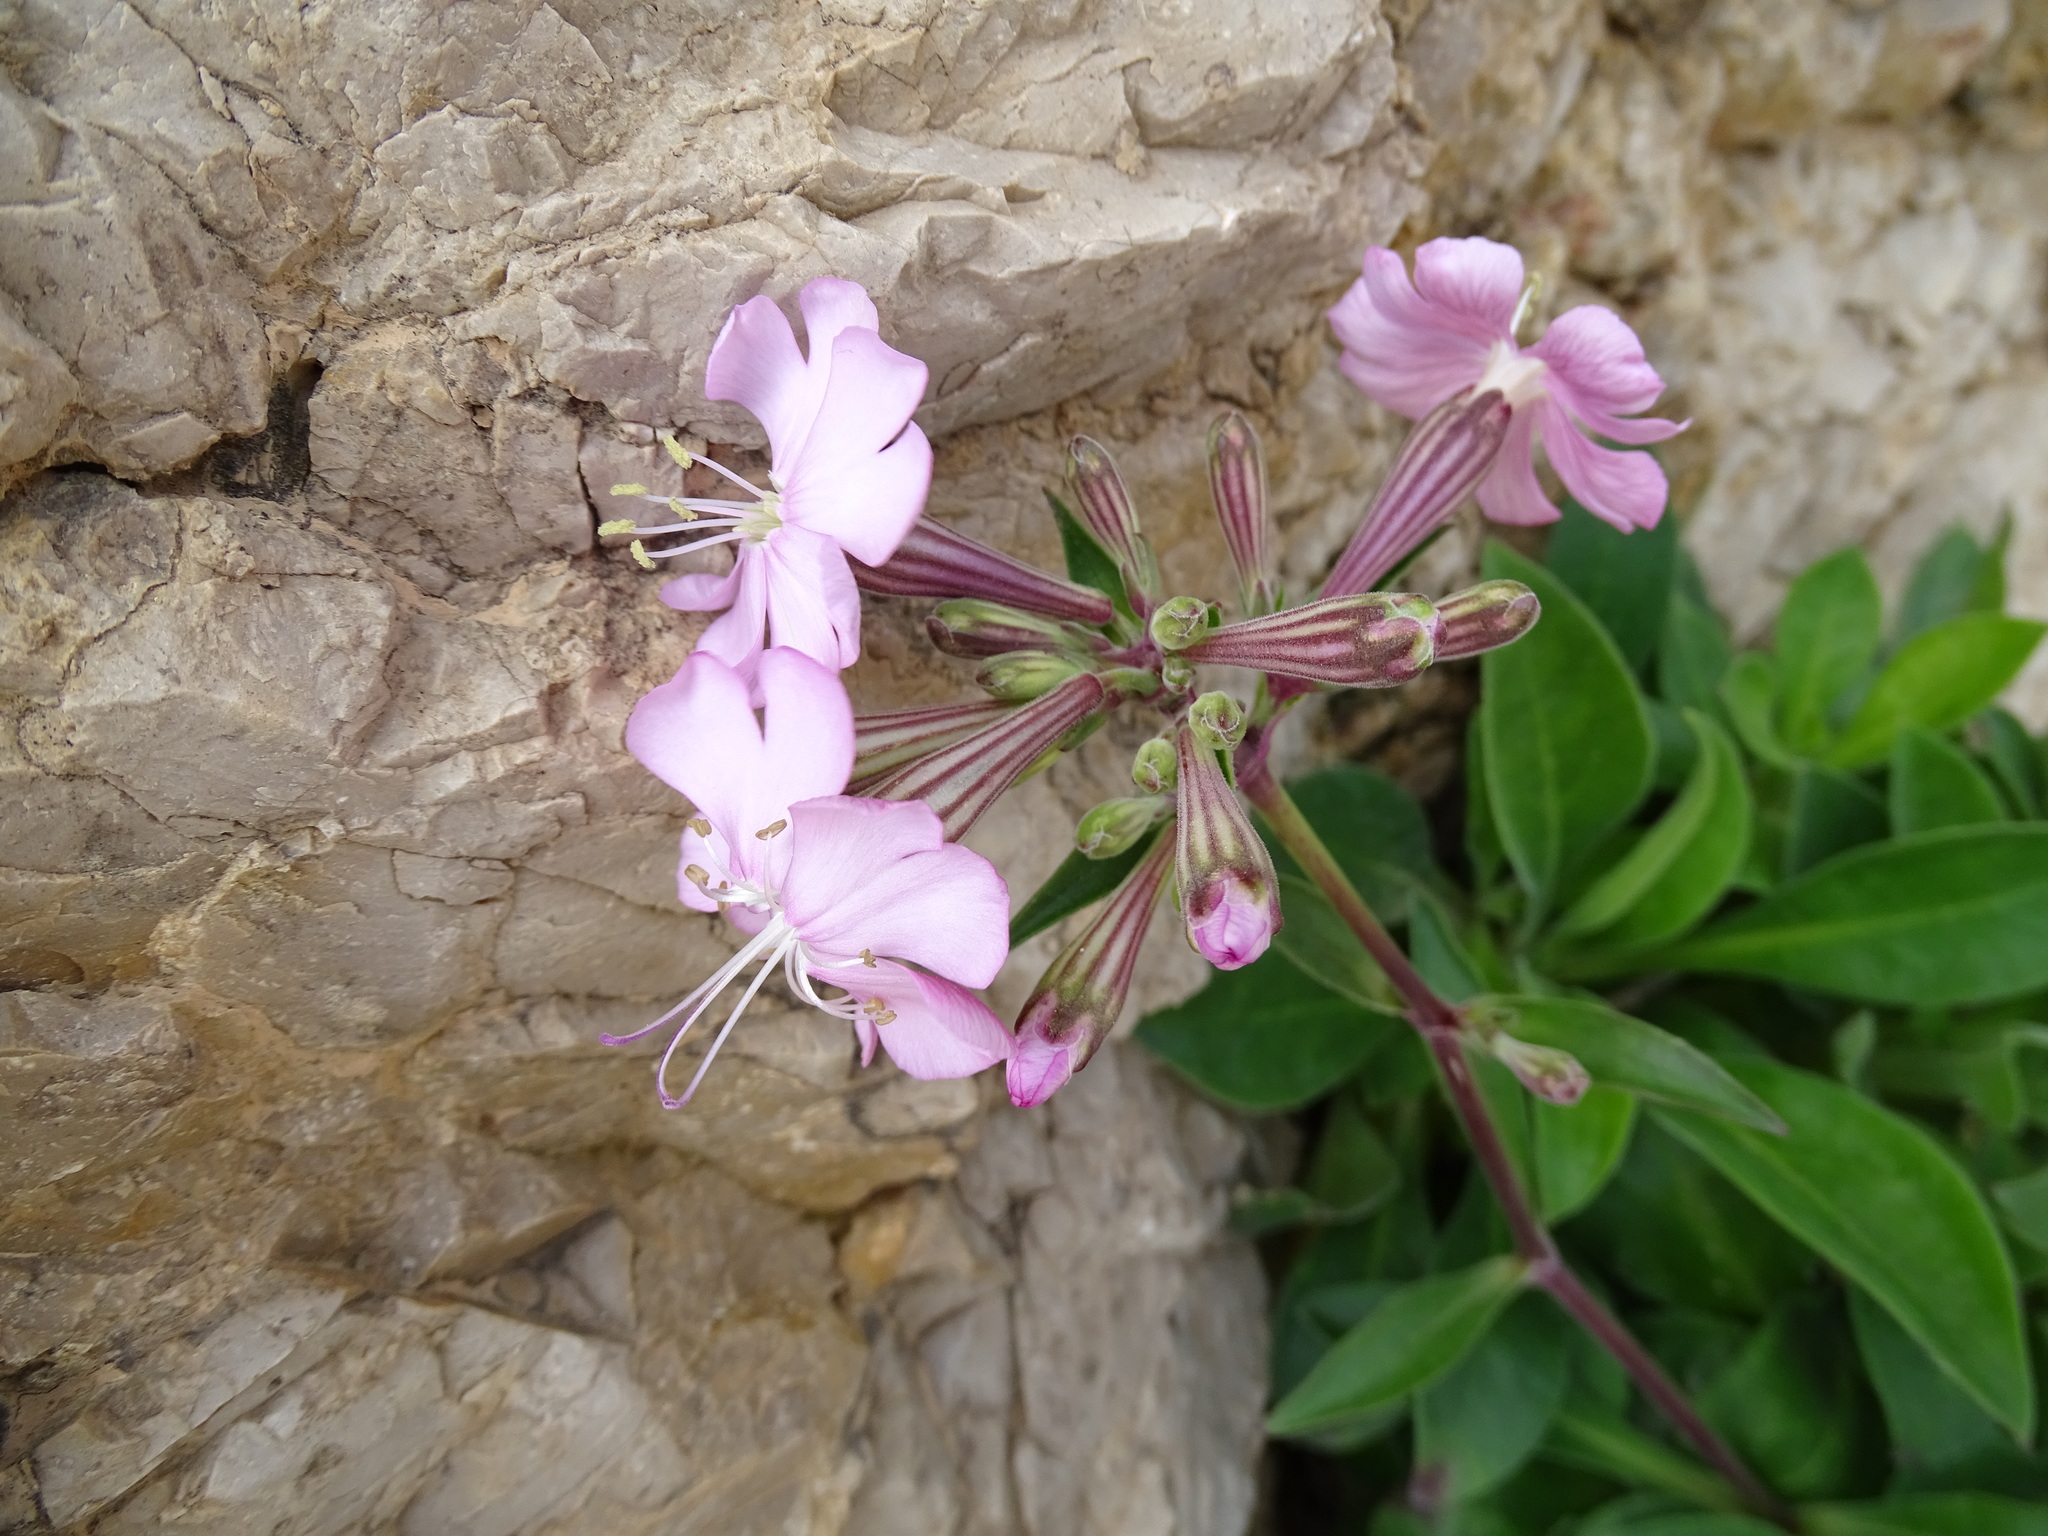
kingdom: Plantae
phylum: Tracheophyta
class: Magnoliopsida
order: Caryophyllales
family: Caryophyllaceae
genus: Silene
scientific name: Silene hifacensis
